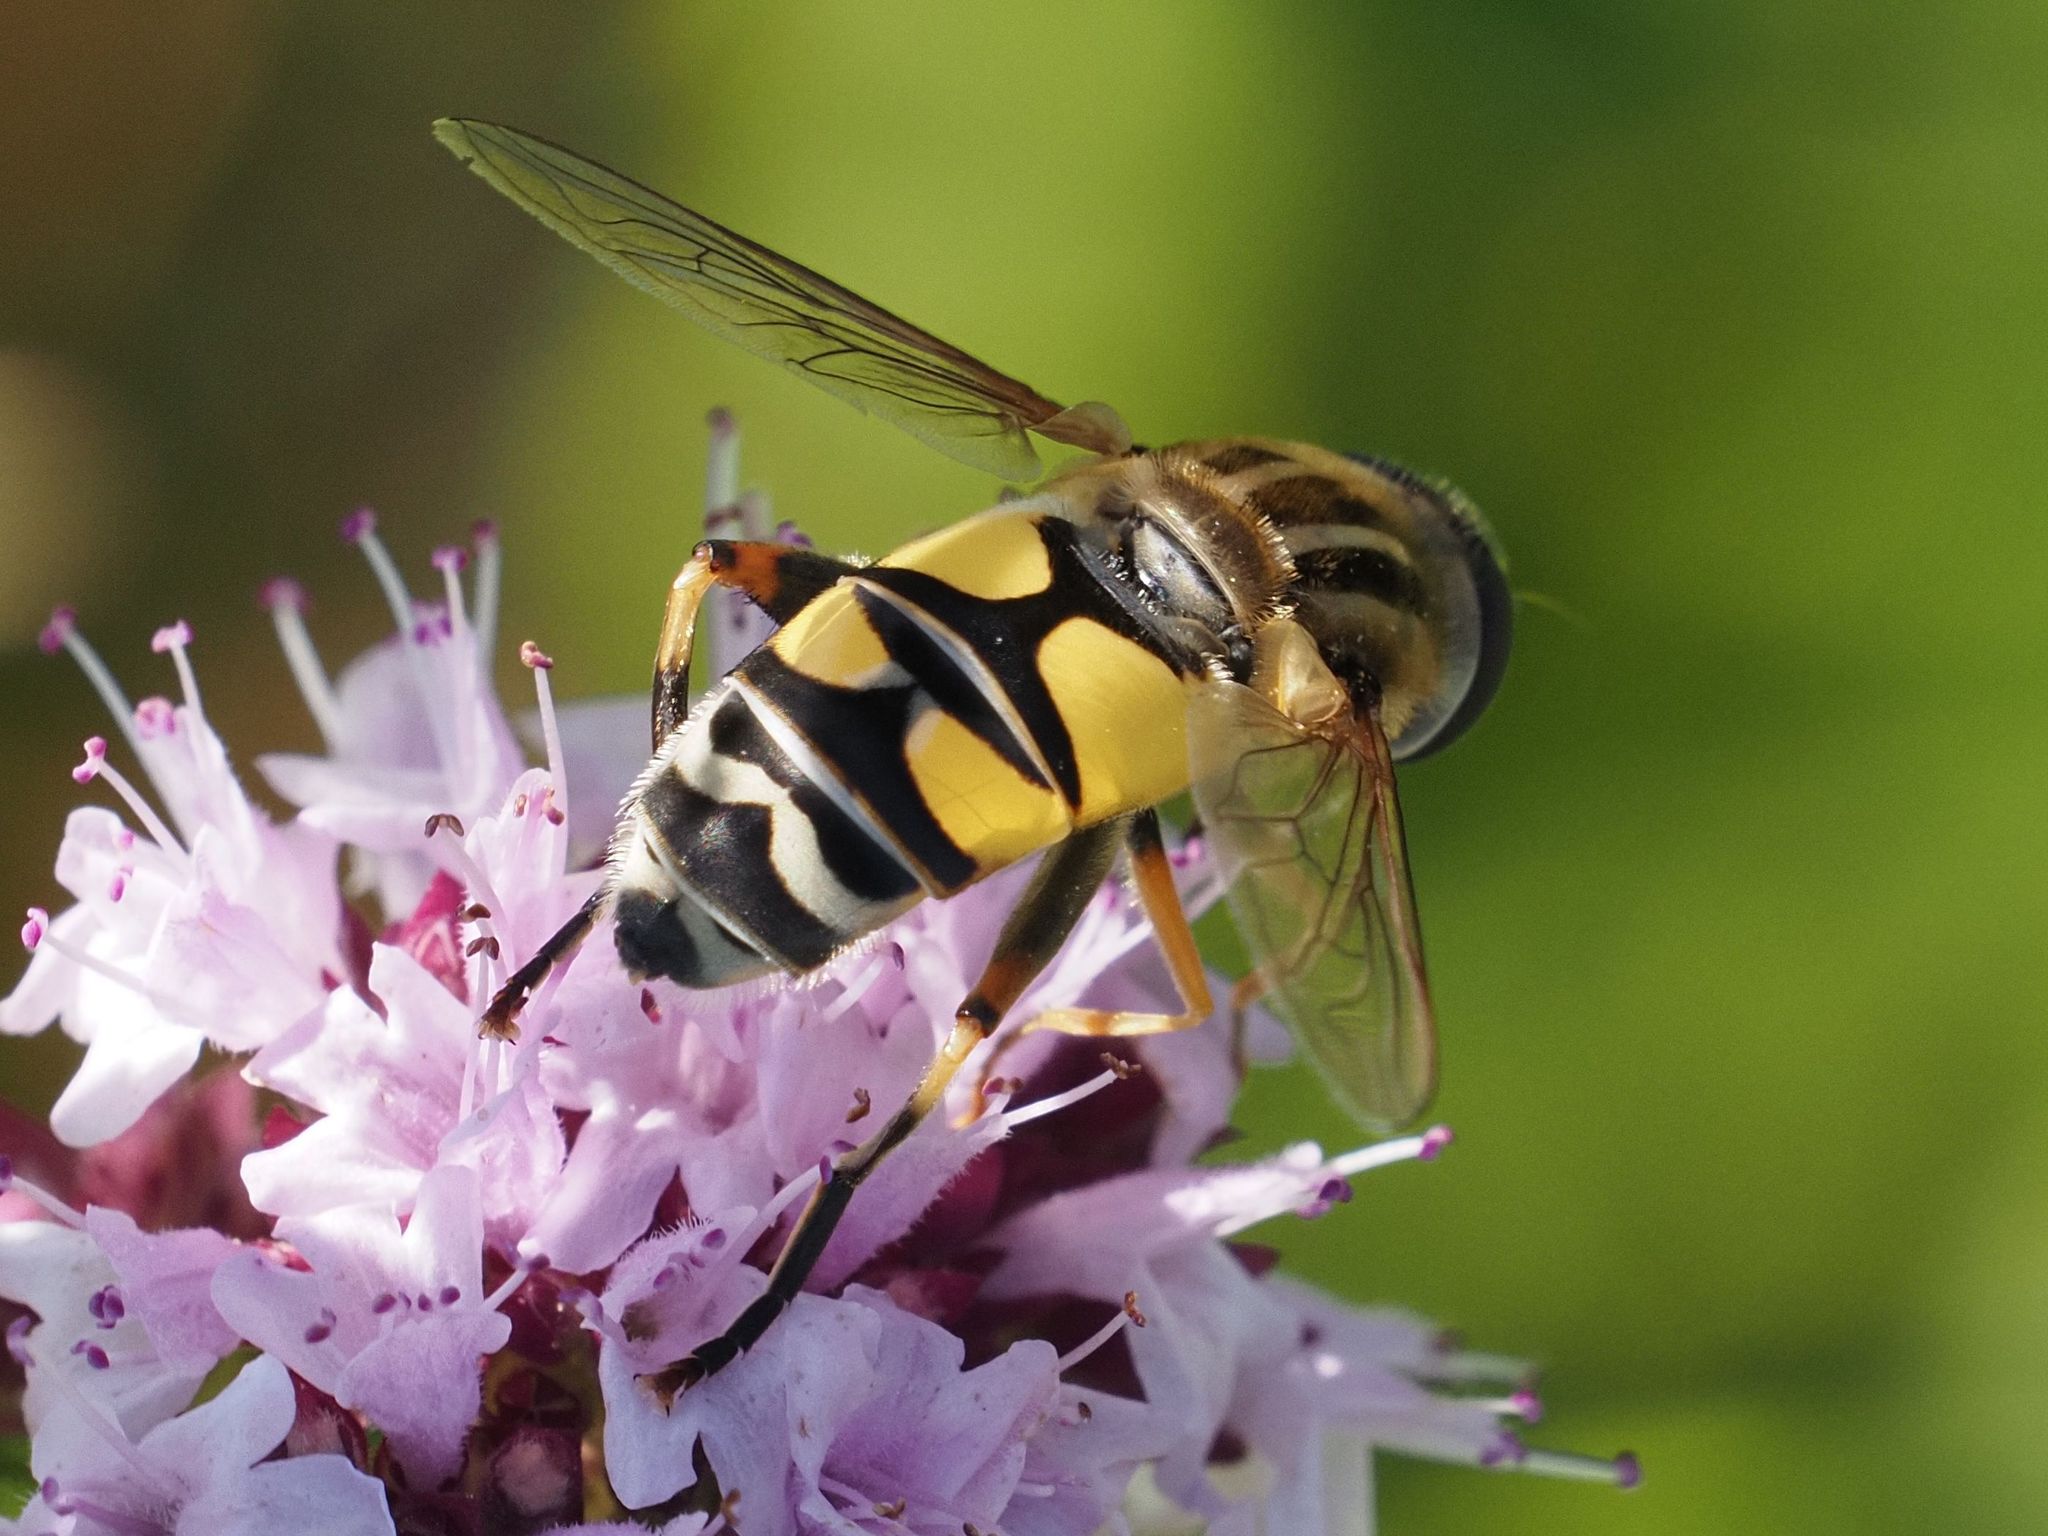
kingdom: Animalia
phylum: Arthropoda
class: Insecta
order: Diptera
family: Syrphidae
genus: Helophilus
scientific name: Helophilus trivittatus
